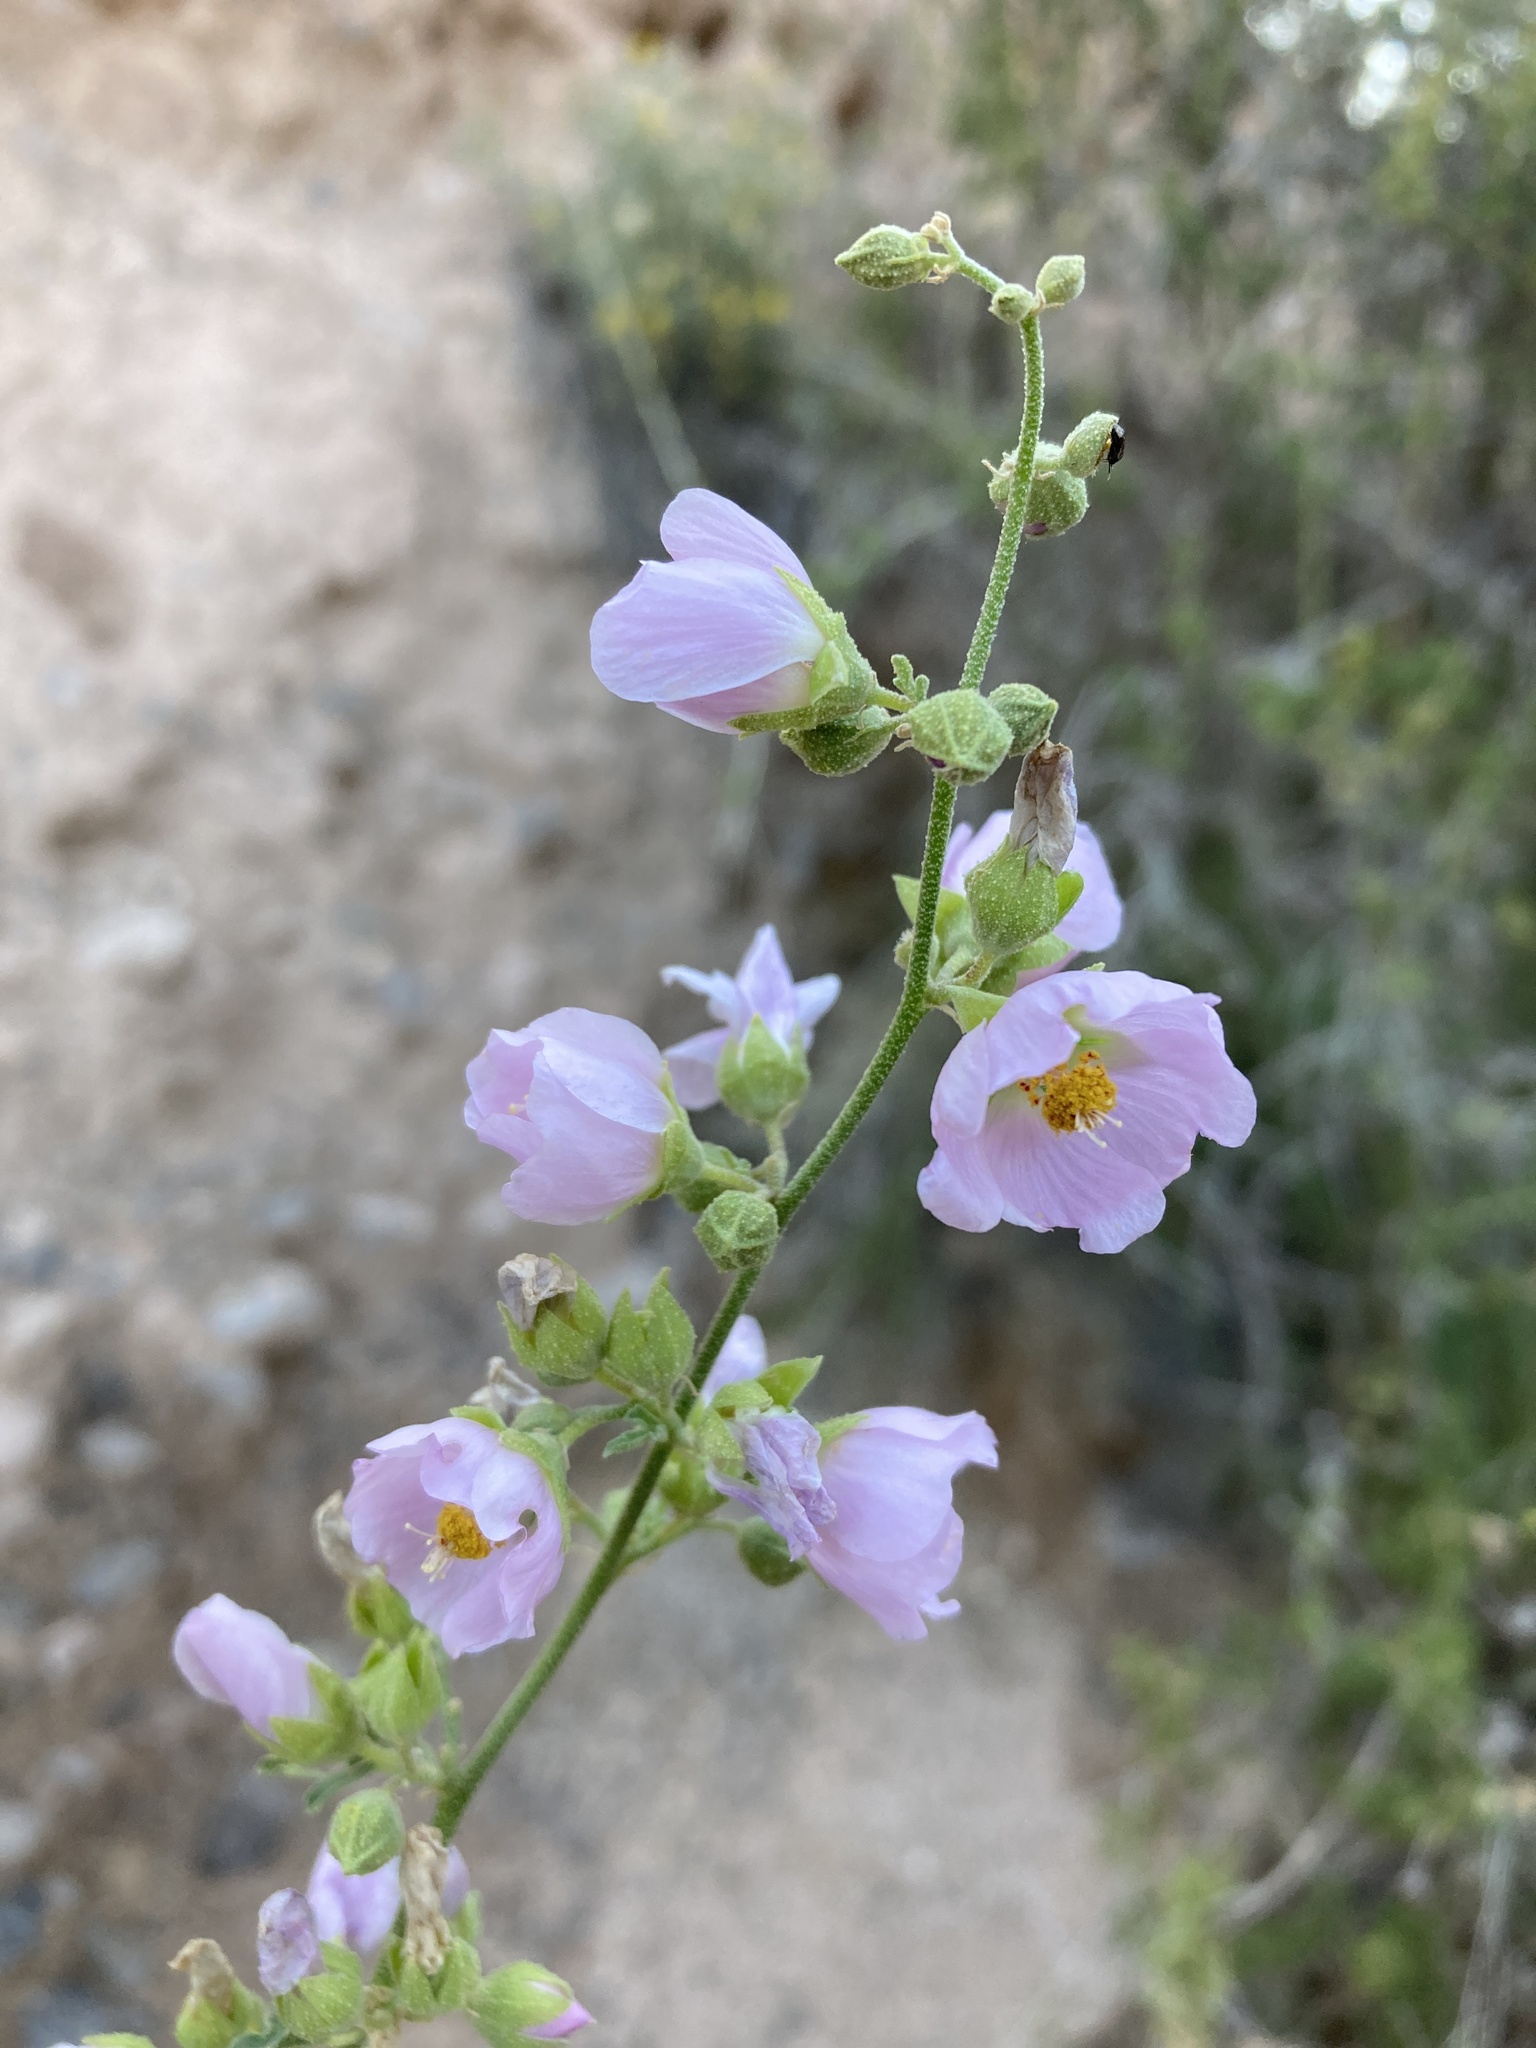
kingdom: Plantae
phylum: Tracheophyta
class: Magnoliopsida
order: Malvales
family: Malvaceae
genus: Sphaeralcea
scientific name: Sphaeralcea polychroma
